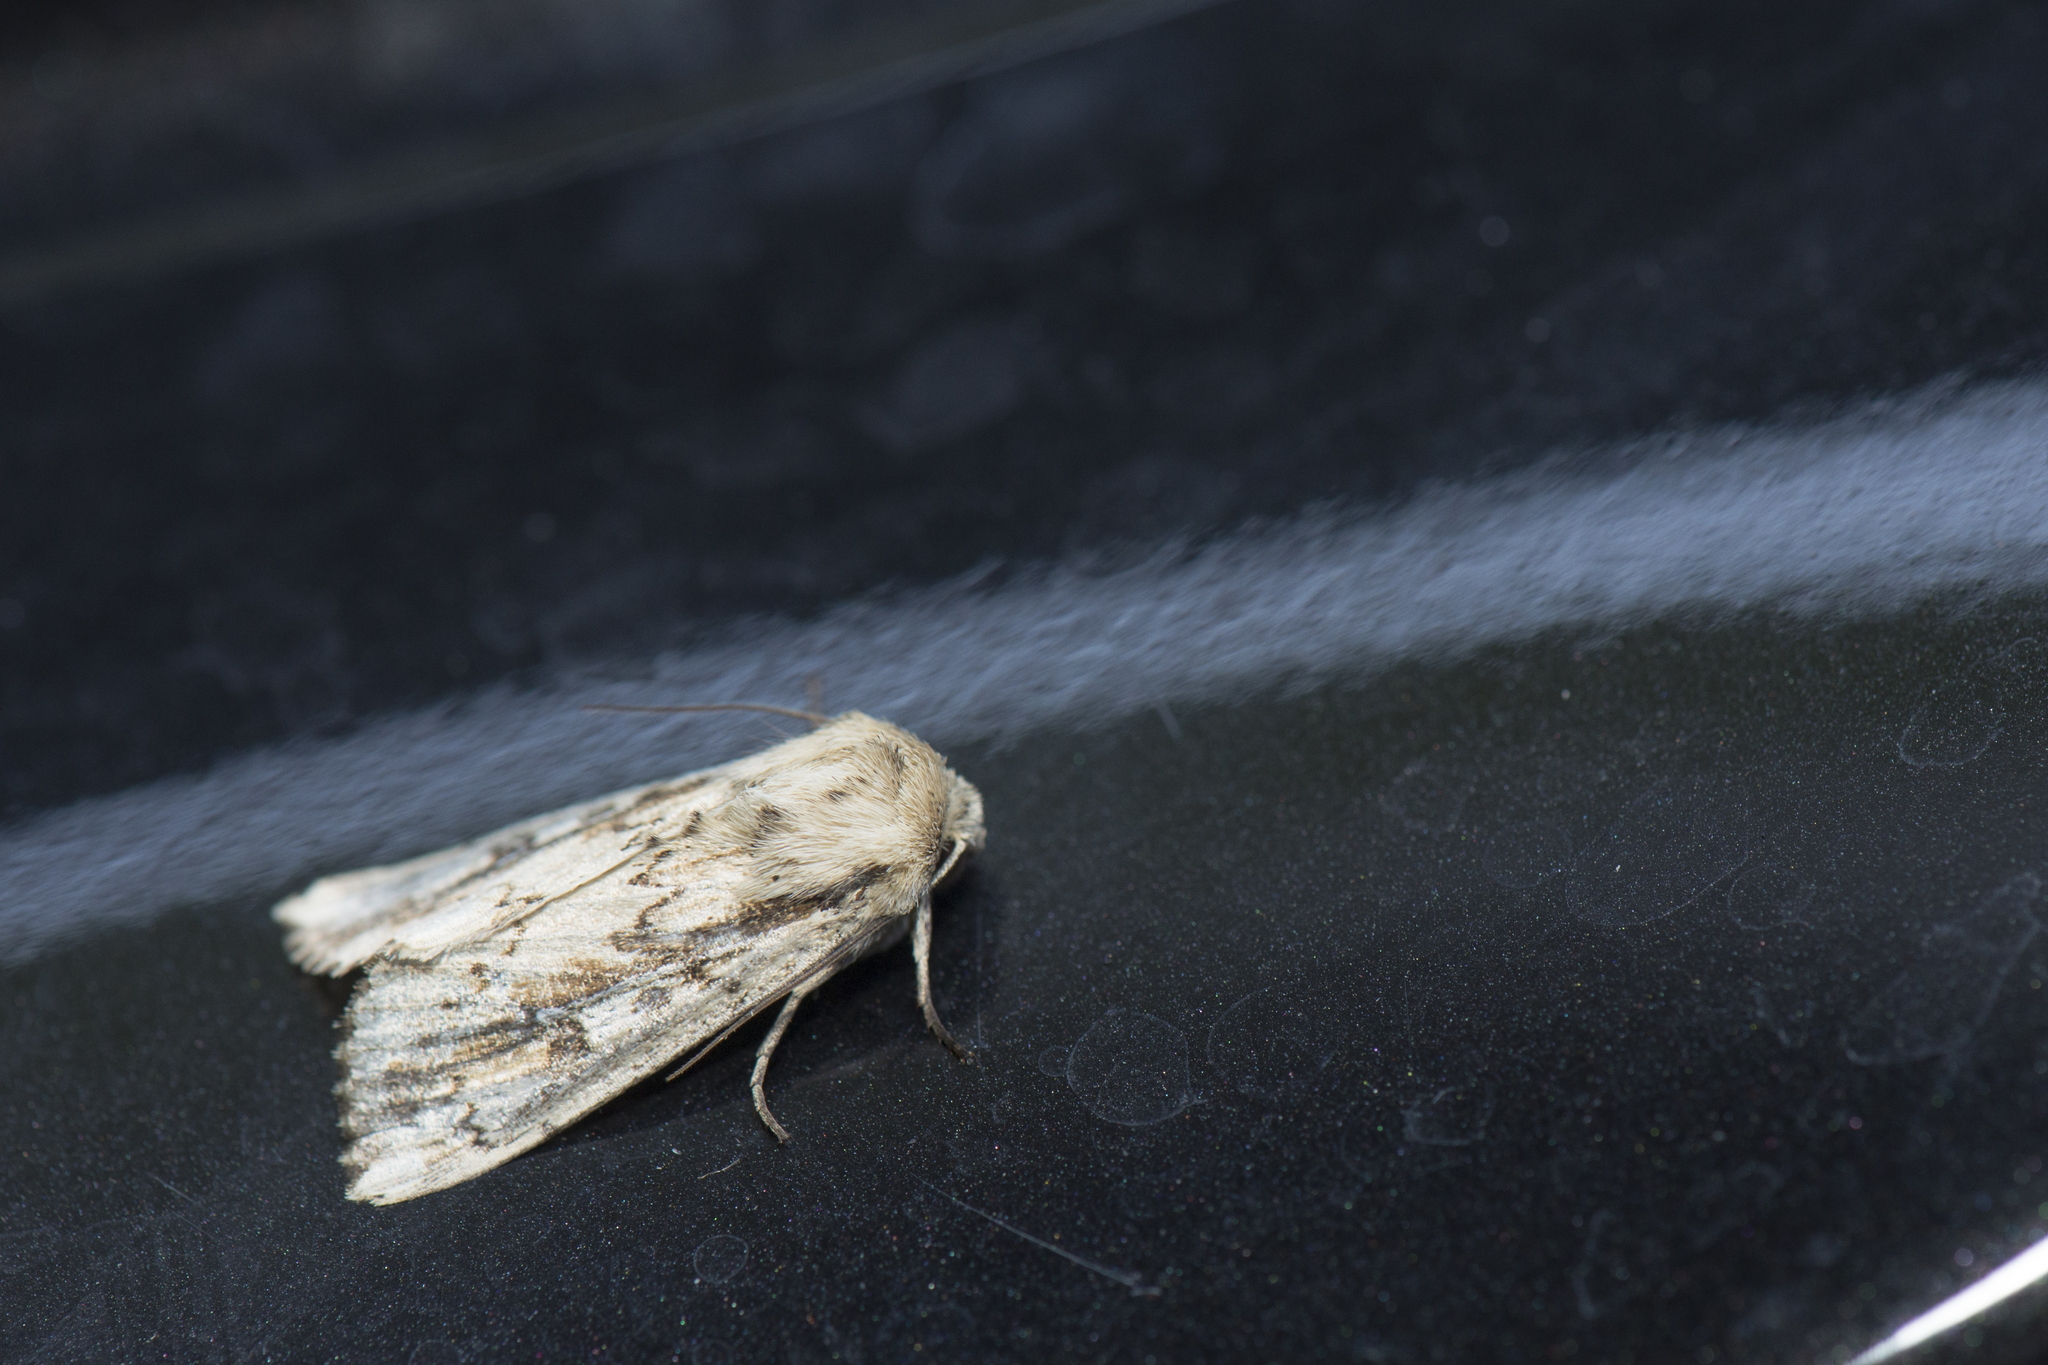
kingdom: Animalia
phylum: Arthropoda
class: Insecta
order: Lepidoptera
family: Noctuidae
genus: Mythimna
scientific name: Mythimna sinuosa
